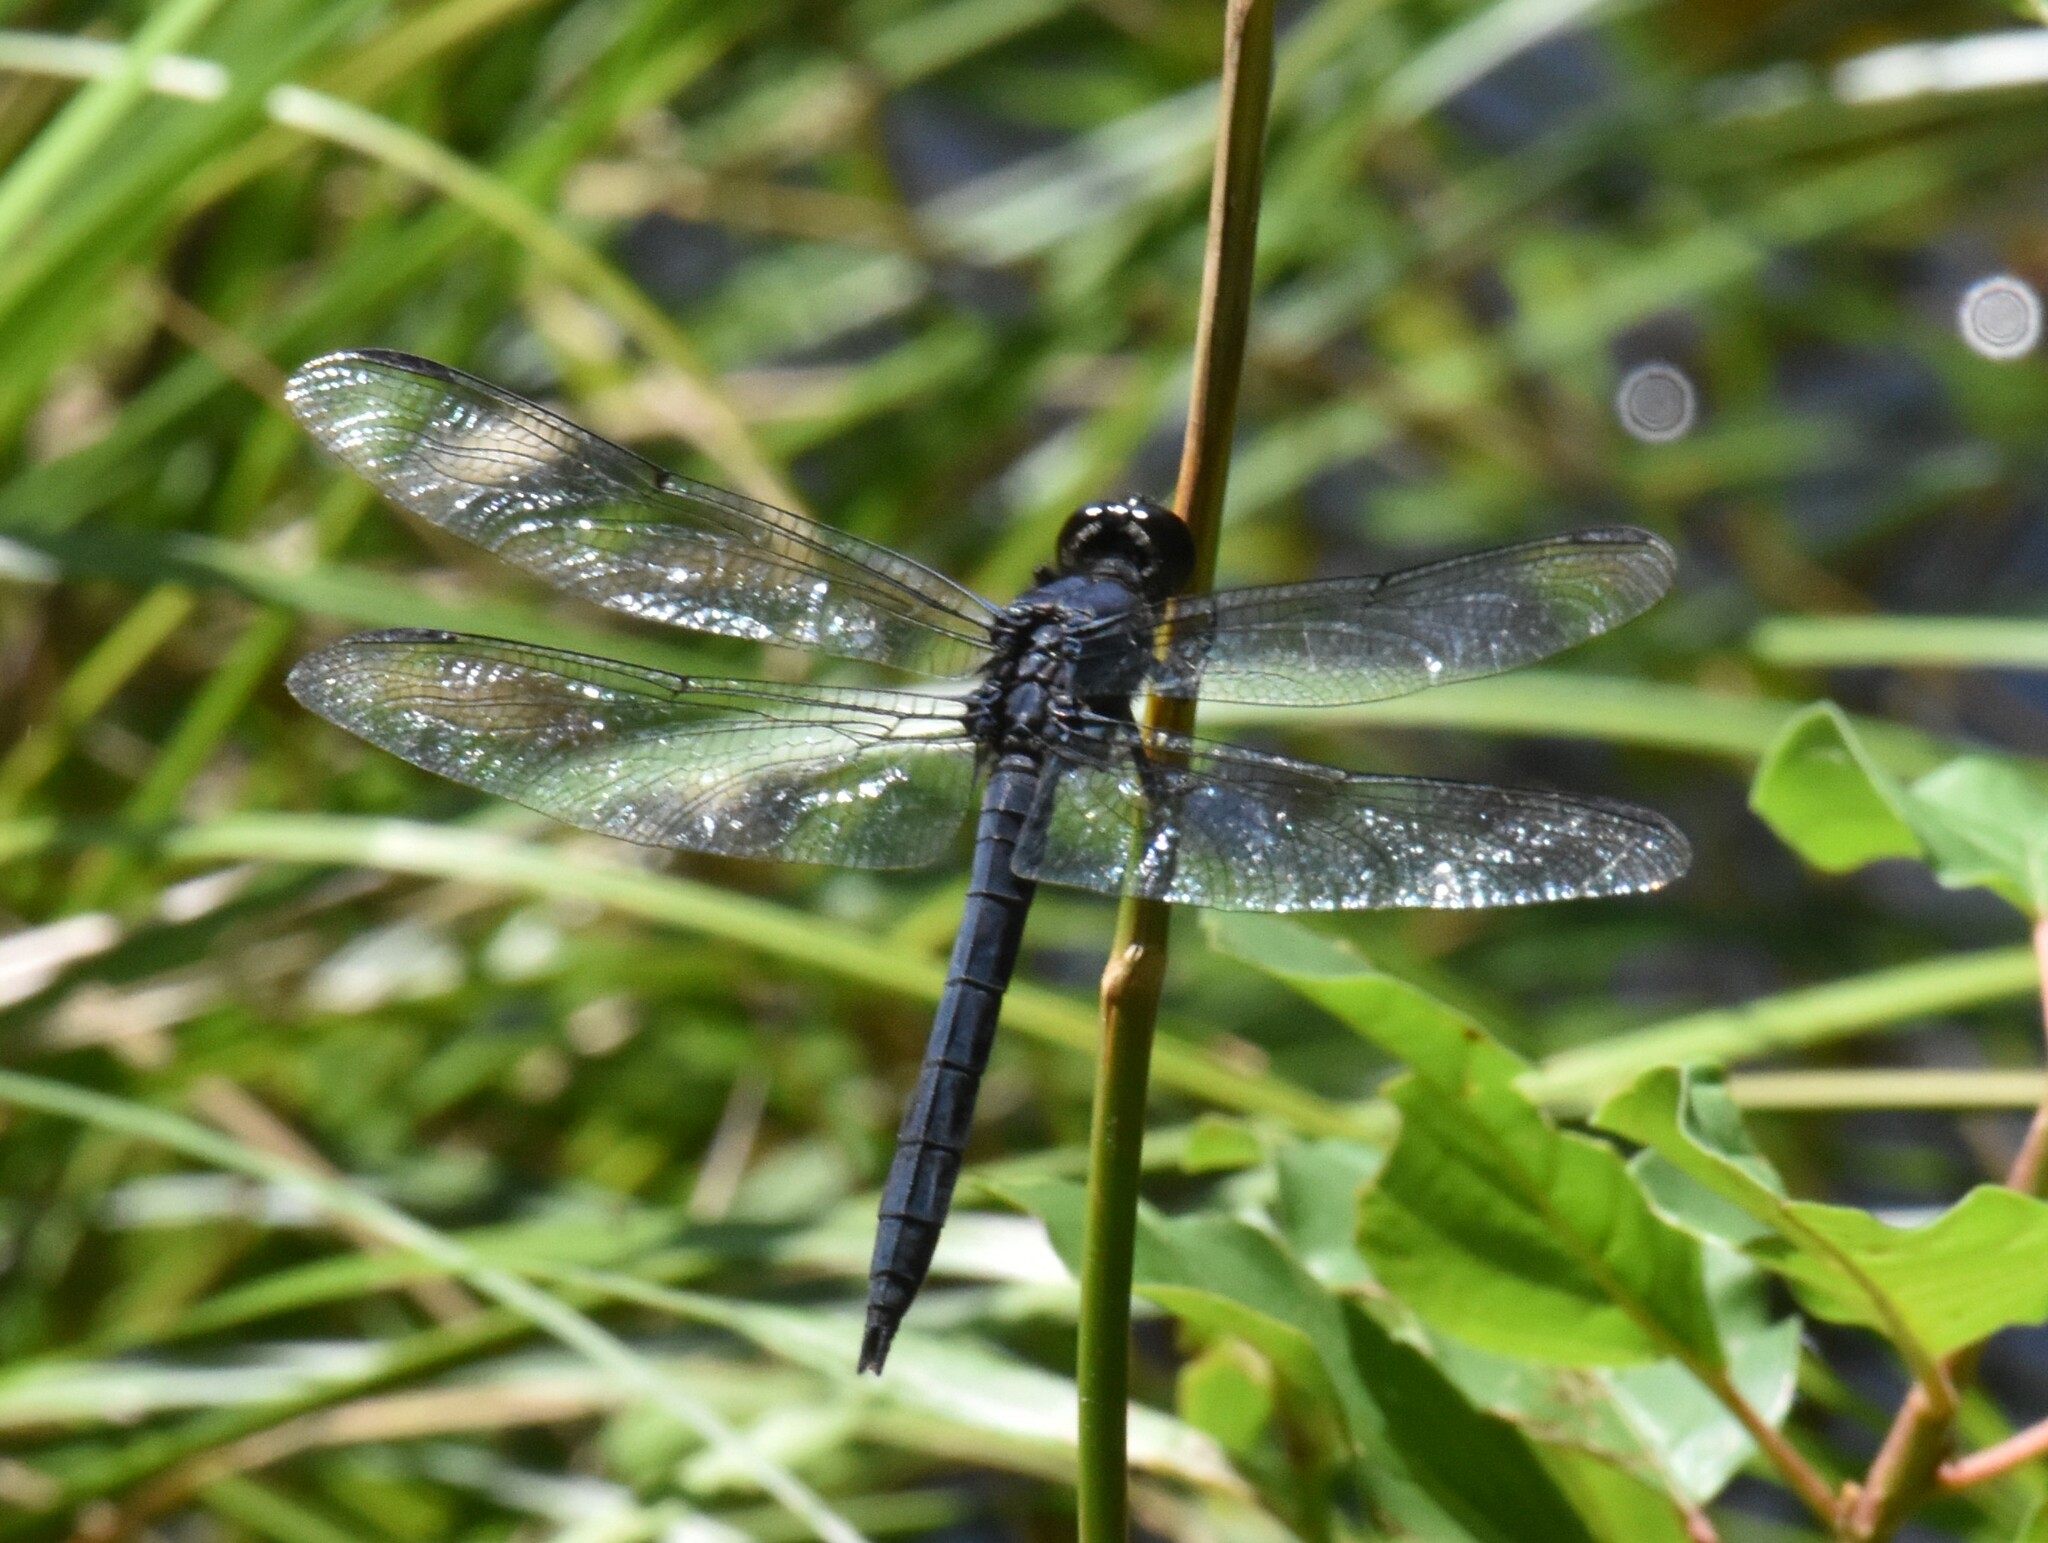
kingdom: Animalia
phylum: Arthropoda
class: Insecta
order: Odonata
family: Libellulidae
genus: Libellula
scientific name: Libellula incesta
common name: Slaty skimmer
